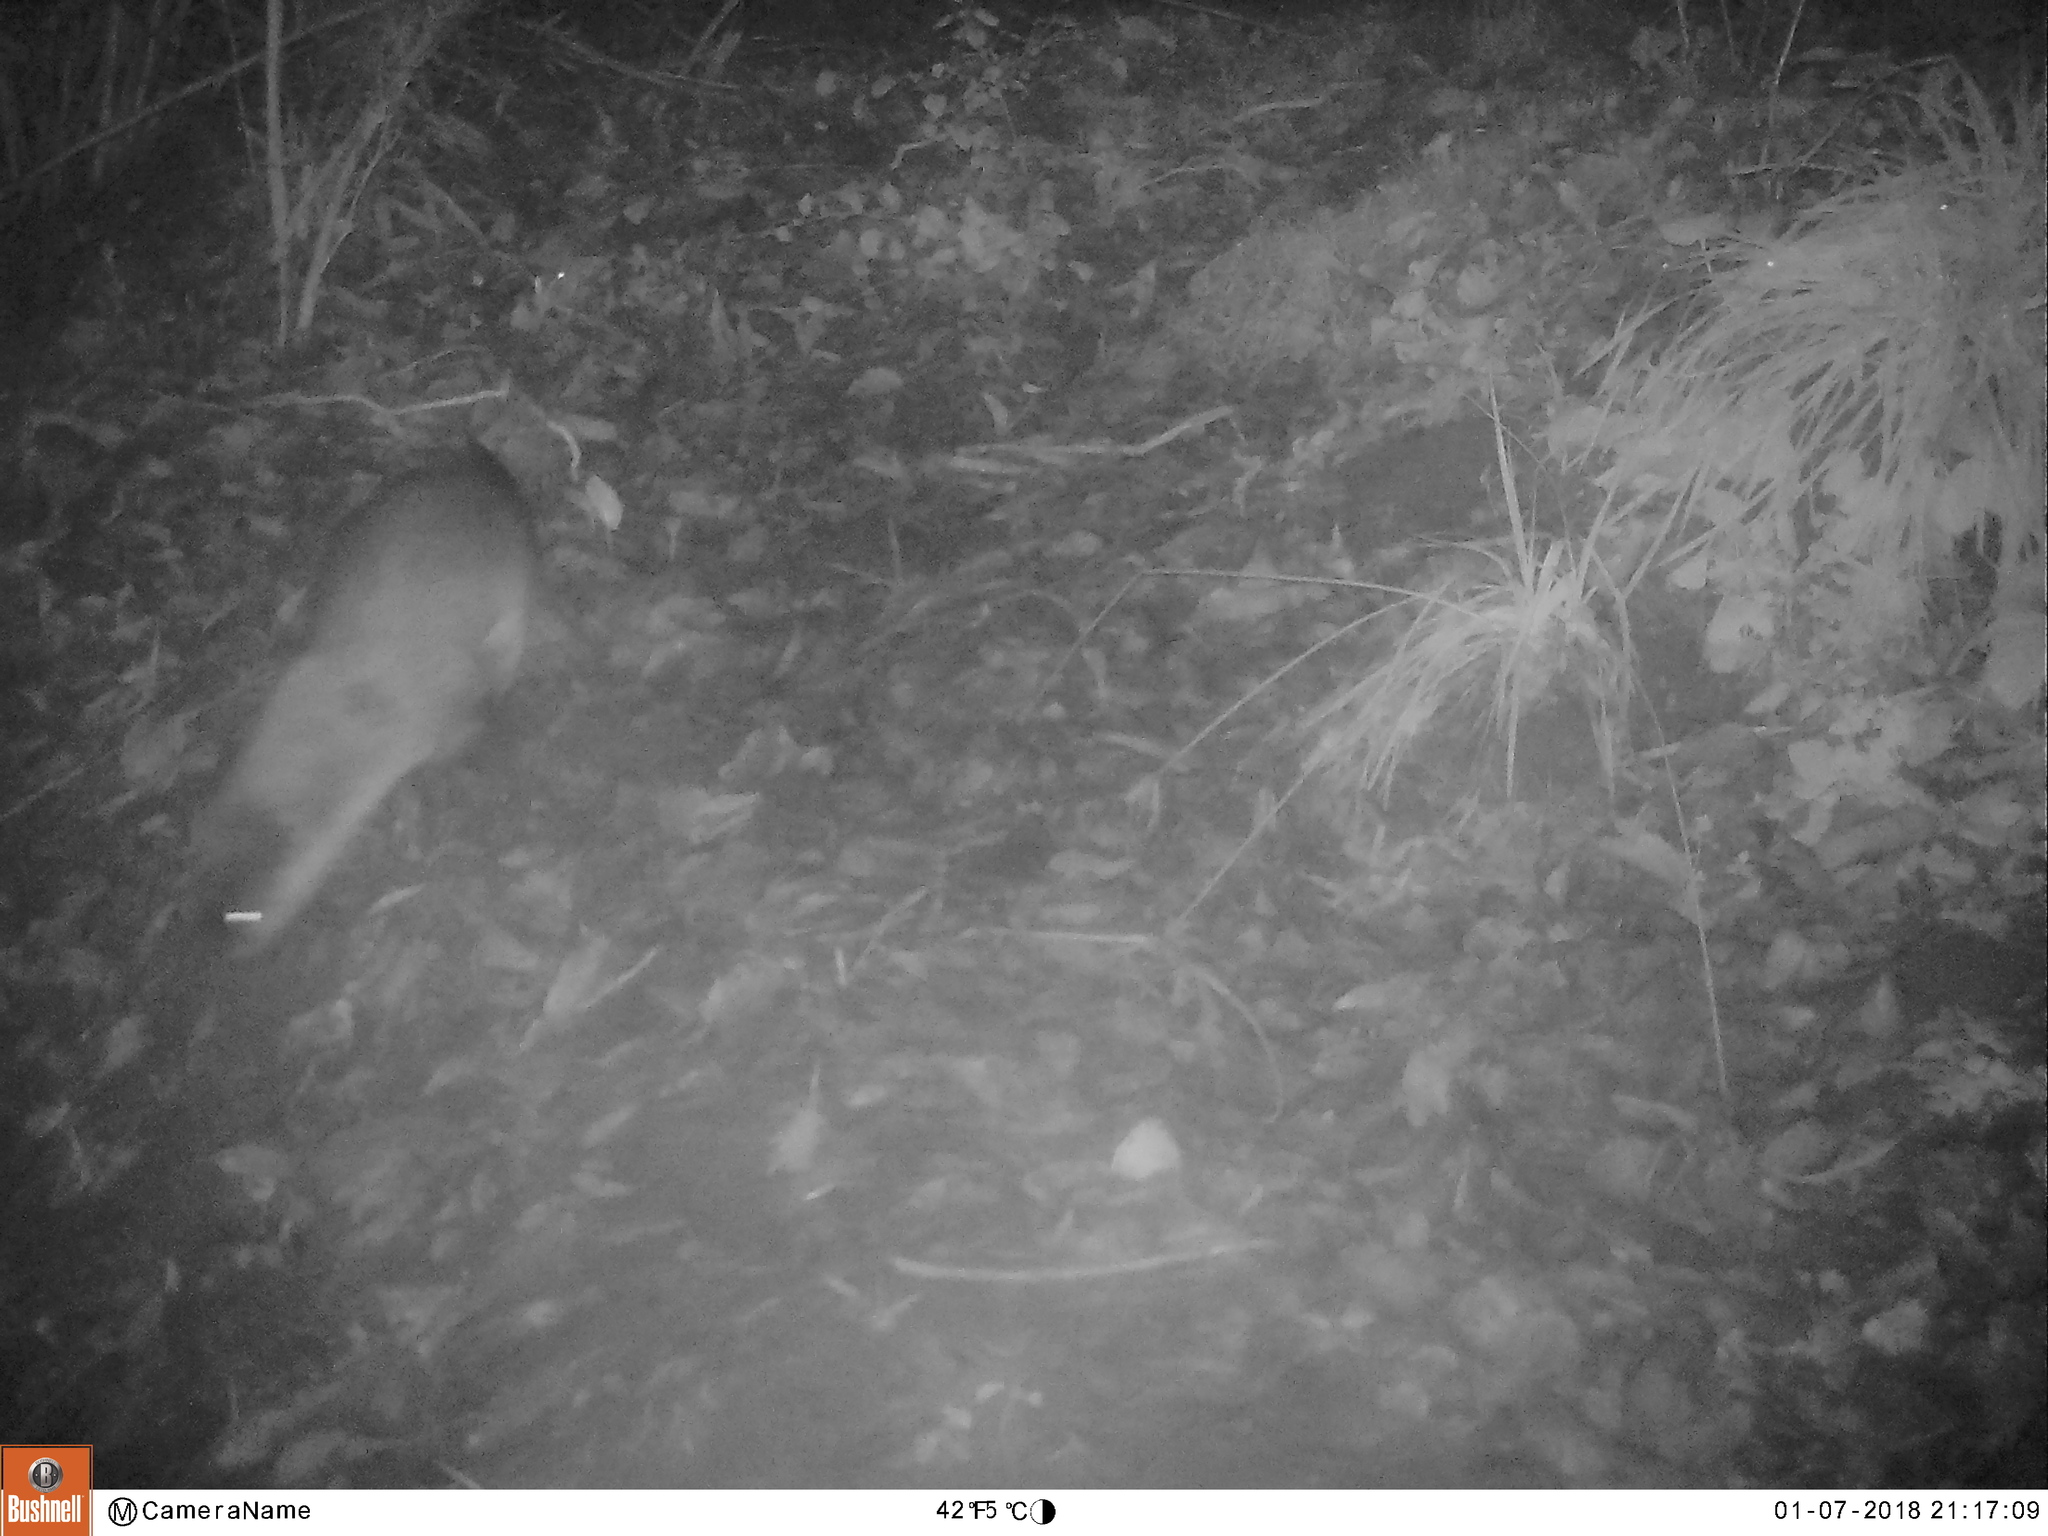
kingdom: Animalia
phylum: Chordata
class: Mammalia
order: Carnivora
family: Mustelidae
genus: Lontra
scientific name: Lontra canadensis
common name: North american river otter
